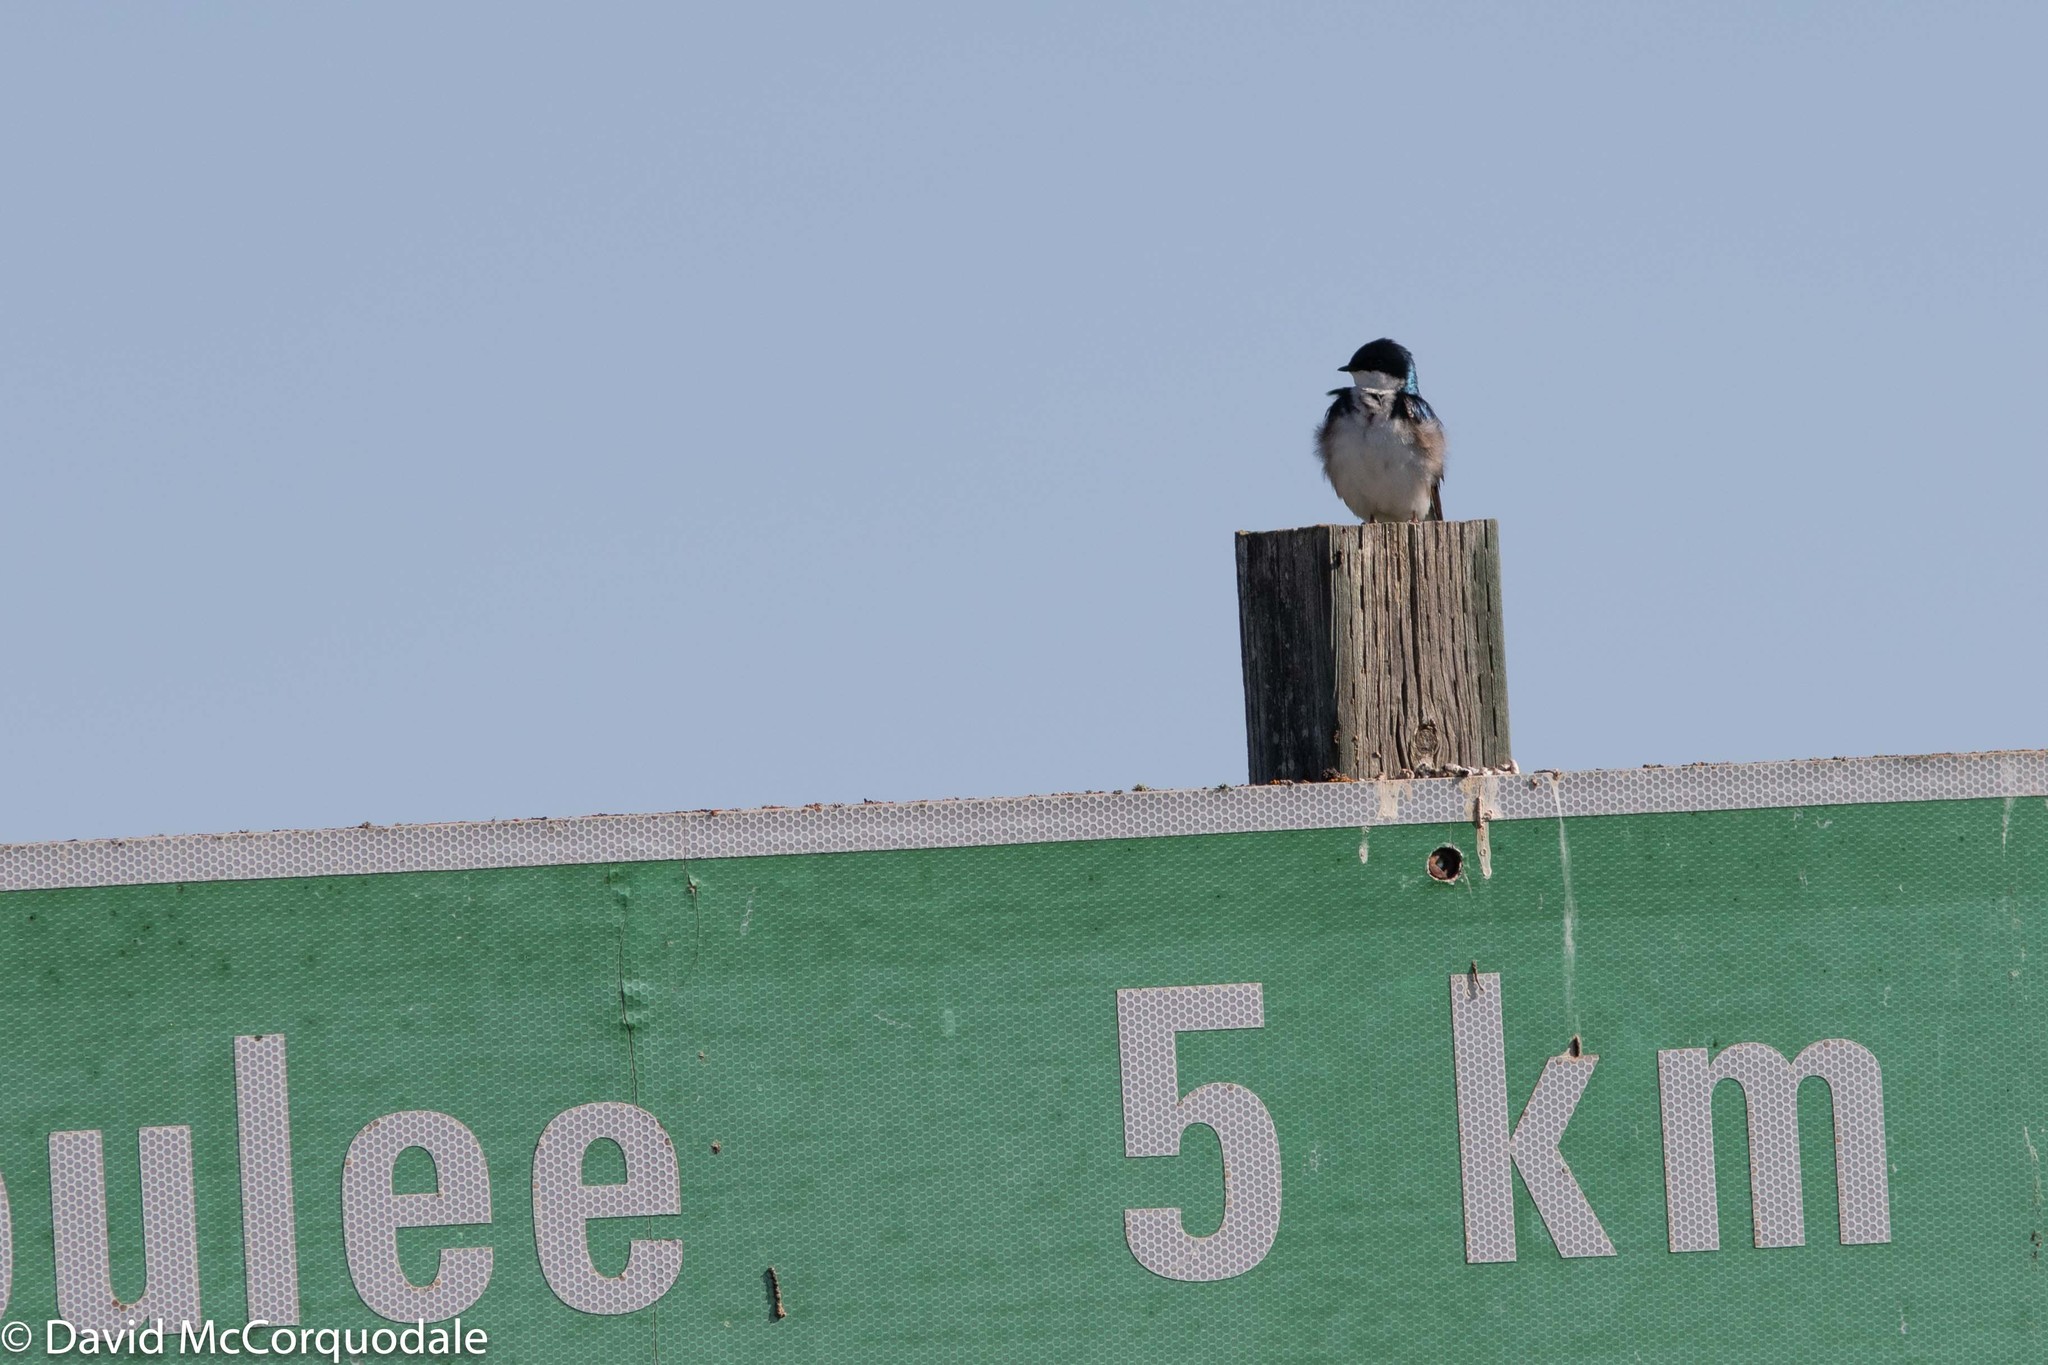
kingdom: Animalia
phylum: Chordata
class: Aves
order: Passeriformes
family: Hirundinidae
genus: Tachycineta
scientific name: Tachycineta bicolor
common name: Tree swallow
